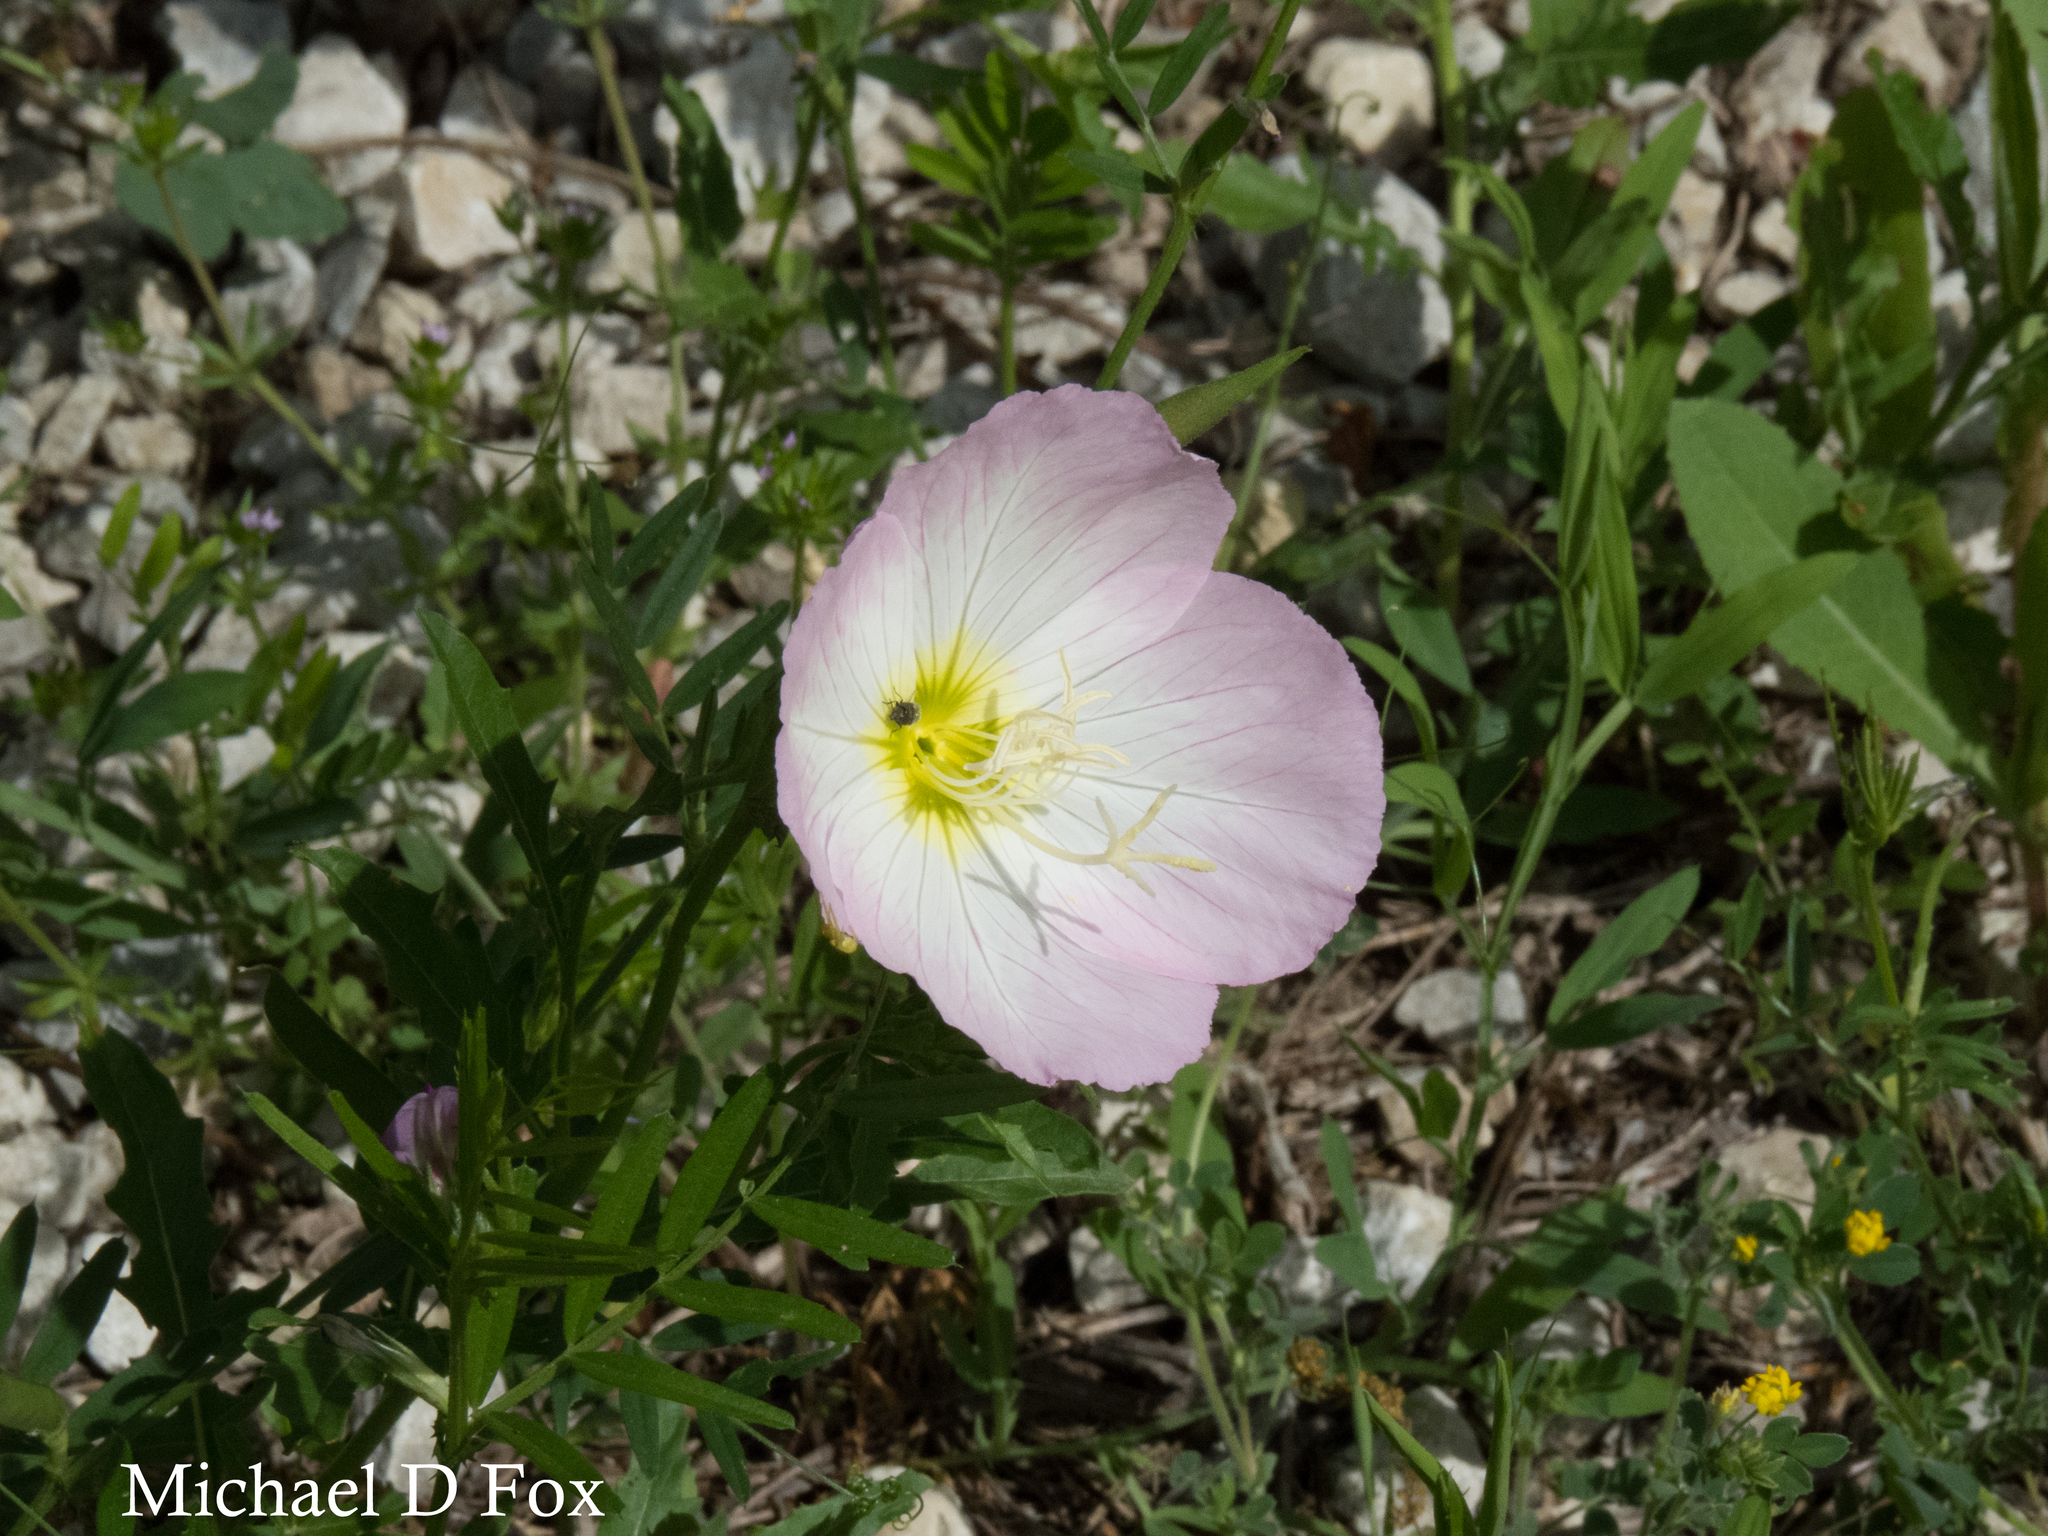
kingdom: Plantae
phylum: Tracheophyta
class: Magnoliopsida
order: Myrtales
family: Onagraceae
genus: Oenothera
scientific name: Oenothera speciosa
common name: White evening-primrose
